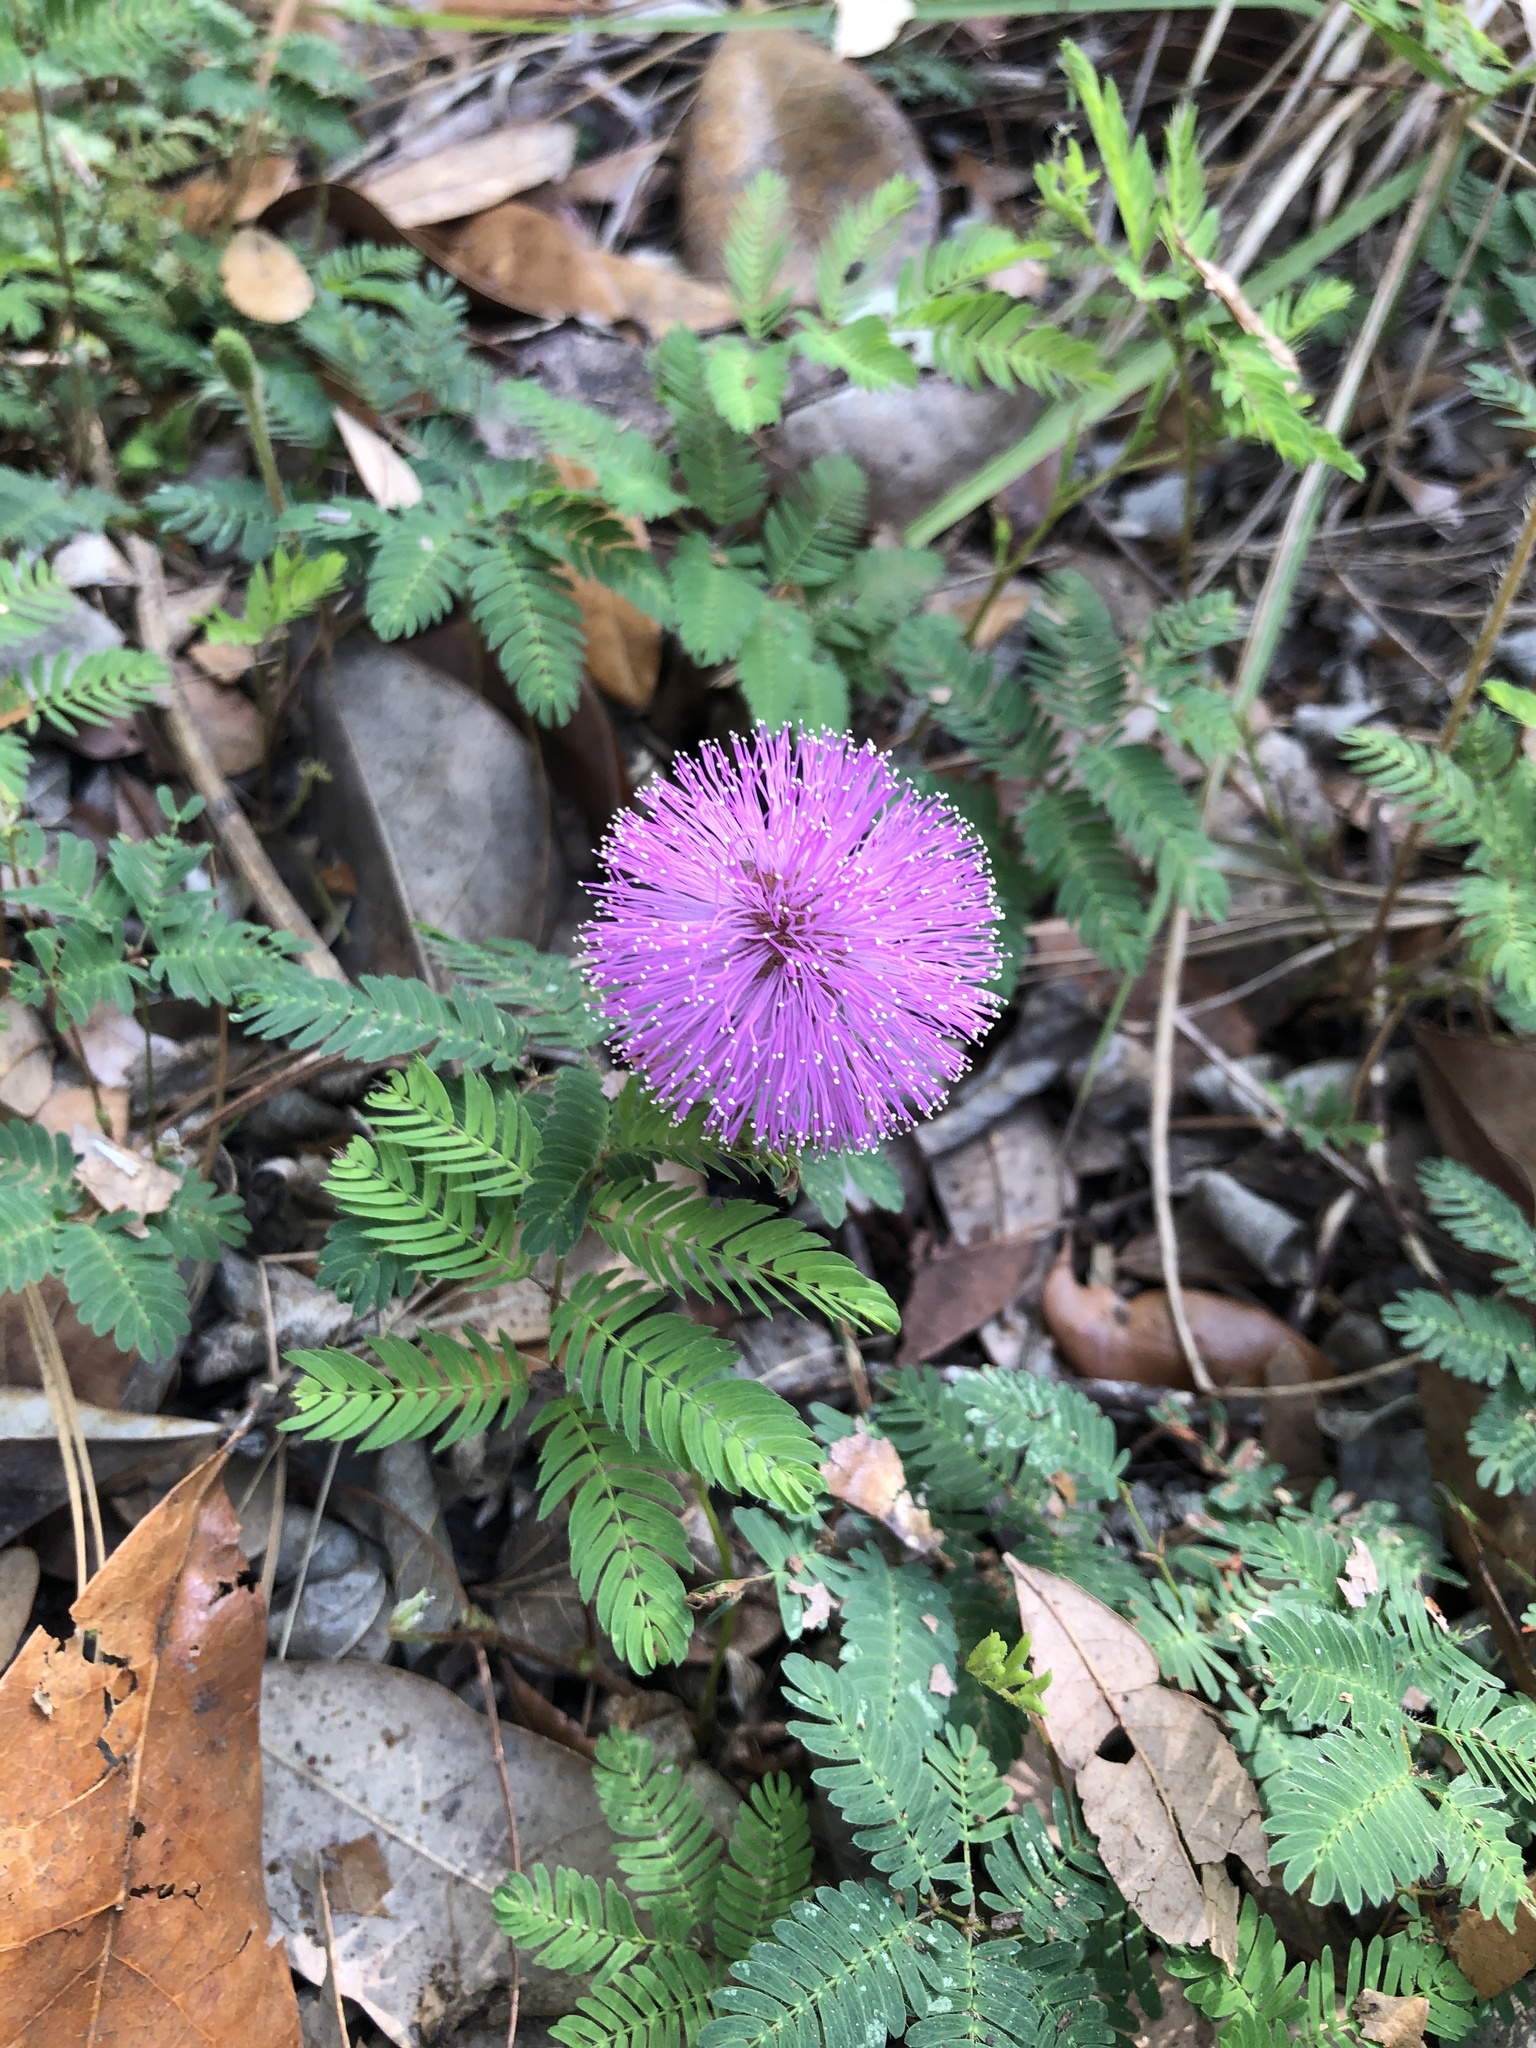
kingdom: Plantae
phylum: Tracheophyta
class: Magnoliopsida
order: Fabales
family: Fabaceae
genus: Mimosa
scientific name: Mimosa strigillosa
